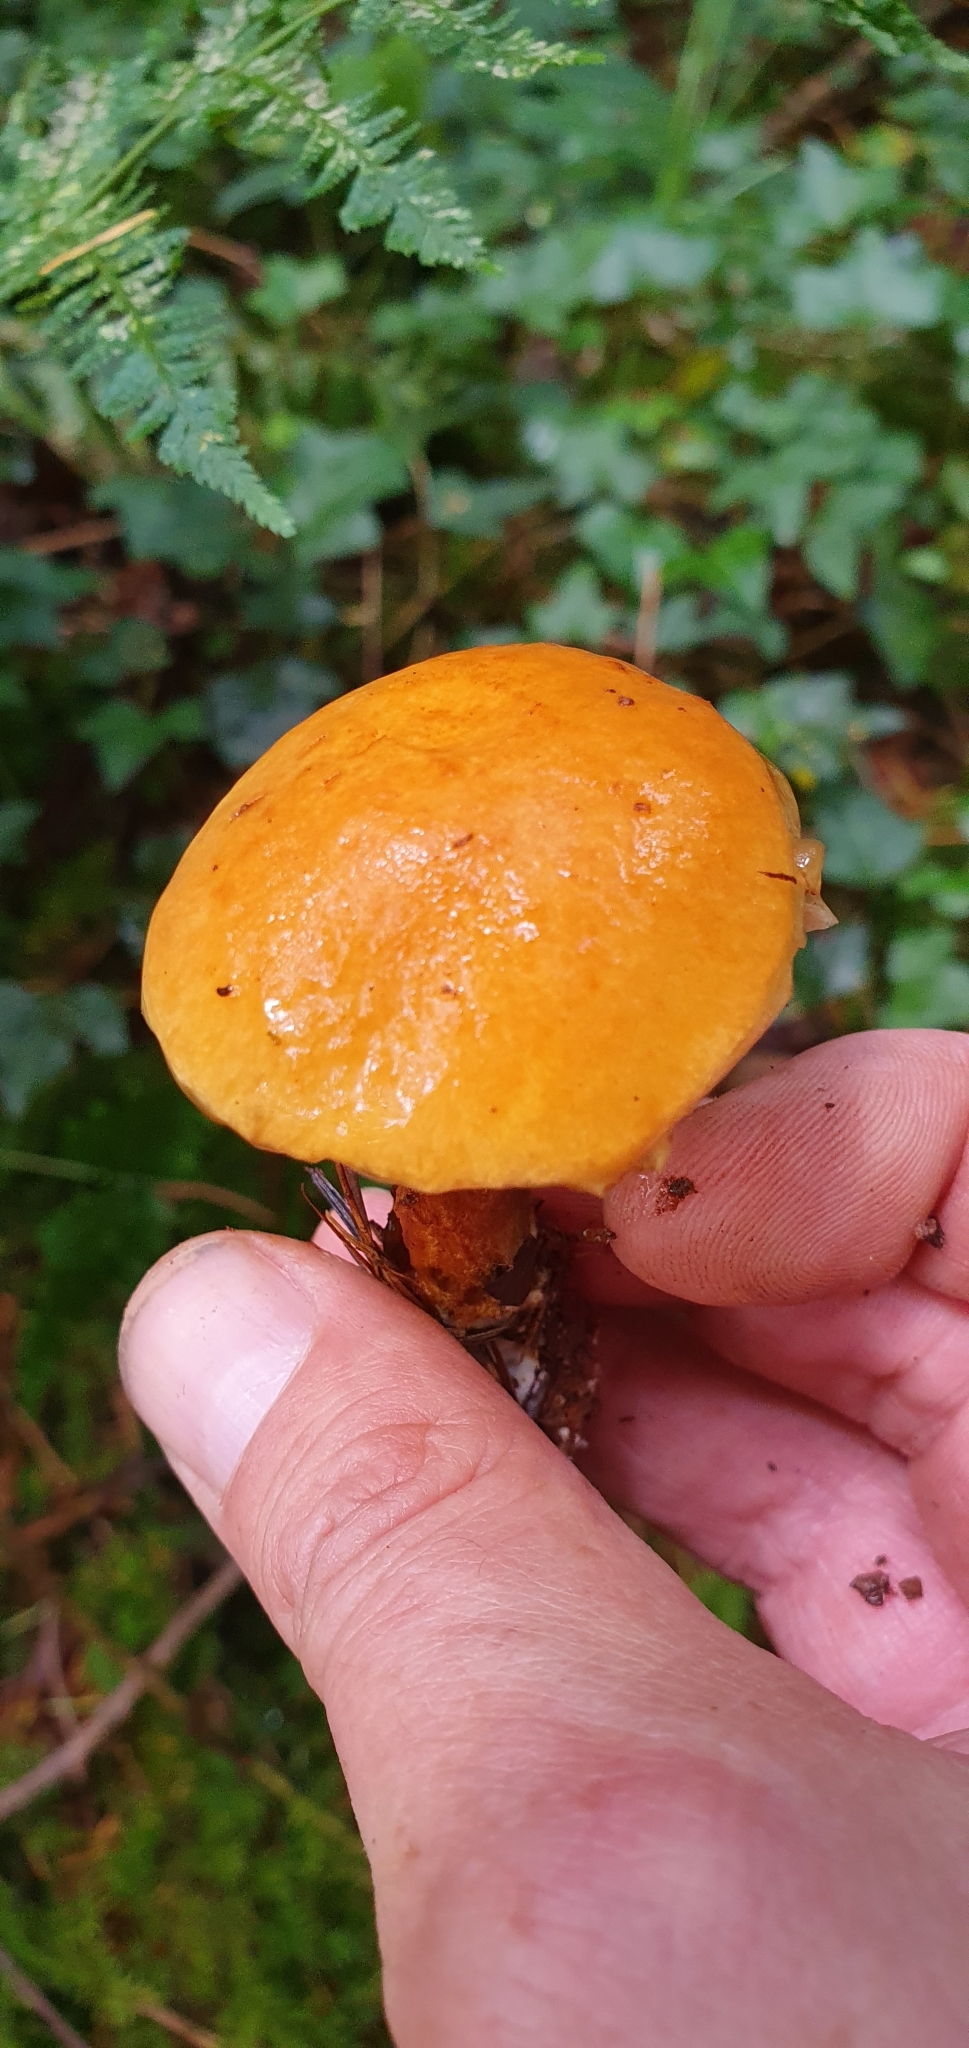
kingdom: Fungi
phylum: Basidiomycota
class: Agaricomycetes
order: Boletales
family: Suillaceae
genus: Suillus
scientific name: Suillus grevillei
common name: Larch bolete
